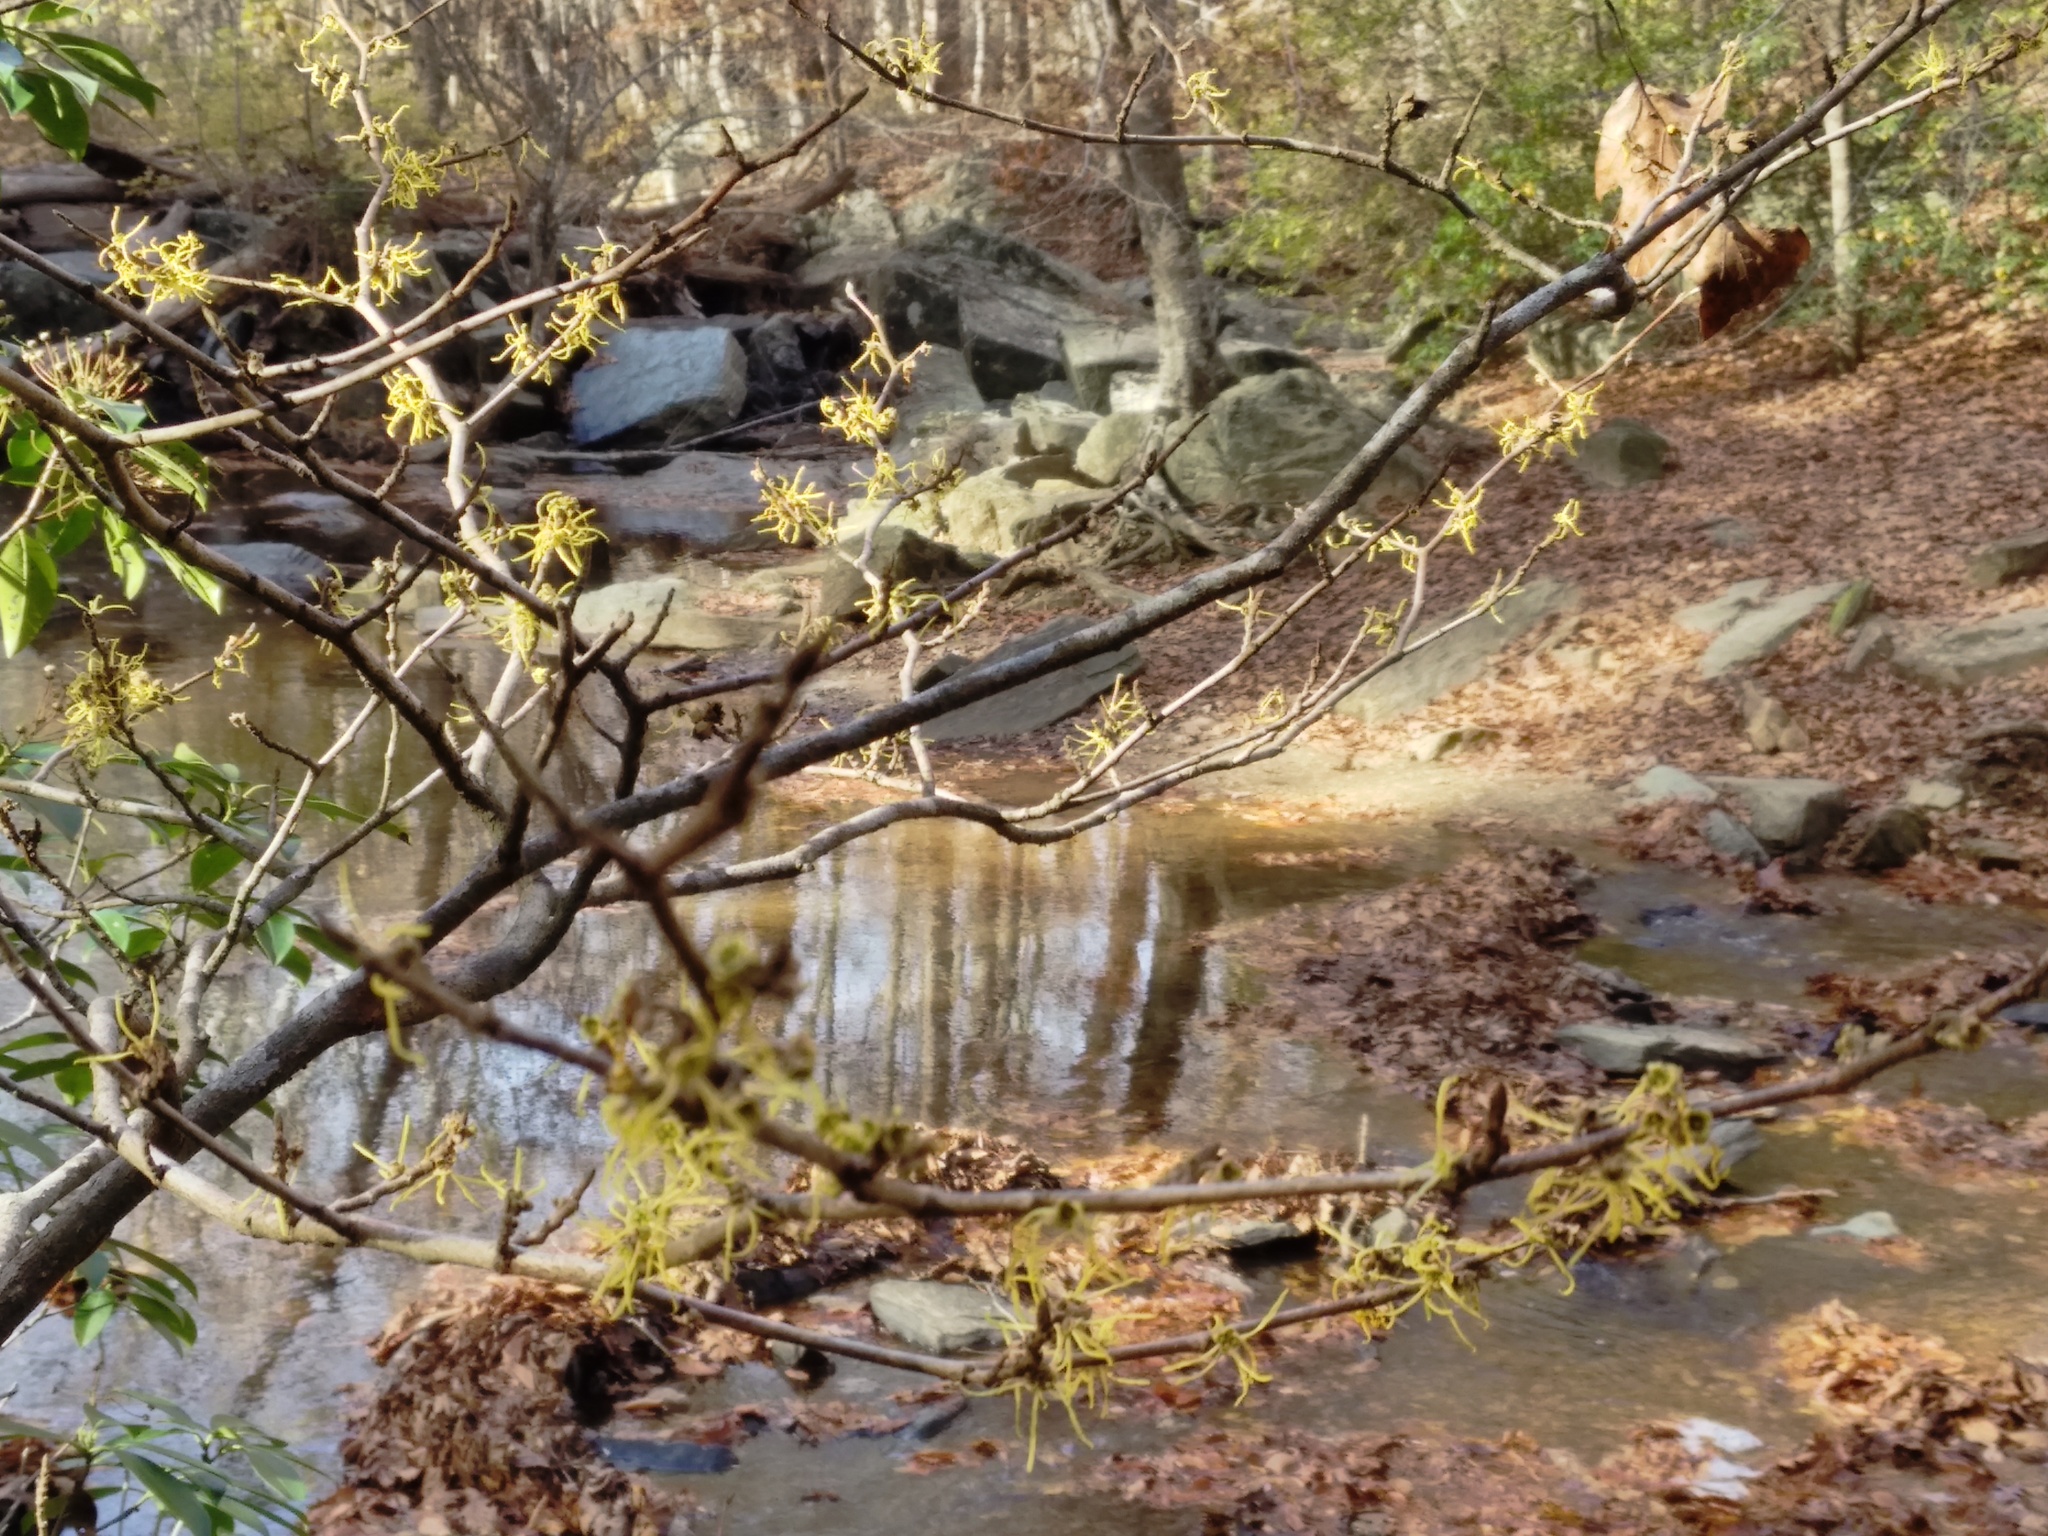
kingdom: Plantae
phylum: Tracheophyta
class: Magnoliopsida
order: Saxifragales
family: Hamamelidaceae
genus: Hamamelis
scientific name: Hamamelis virginiana
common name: Witch-hazel
